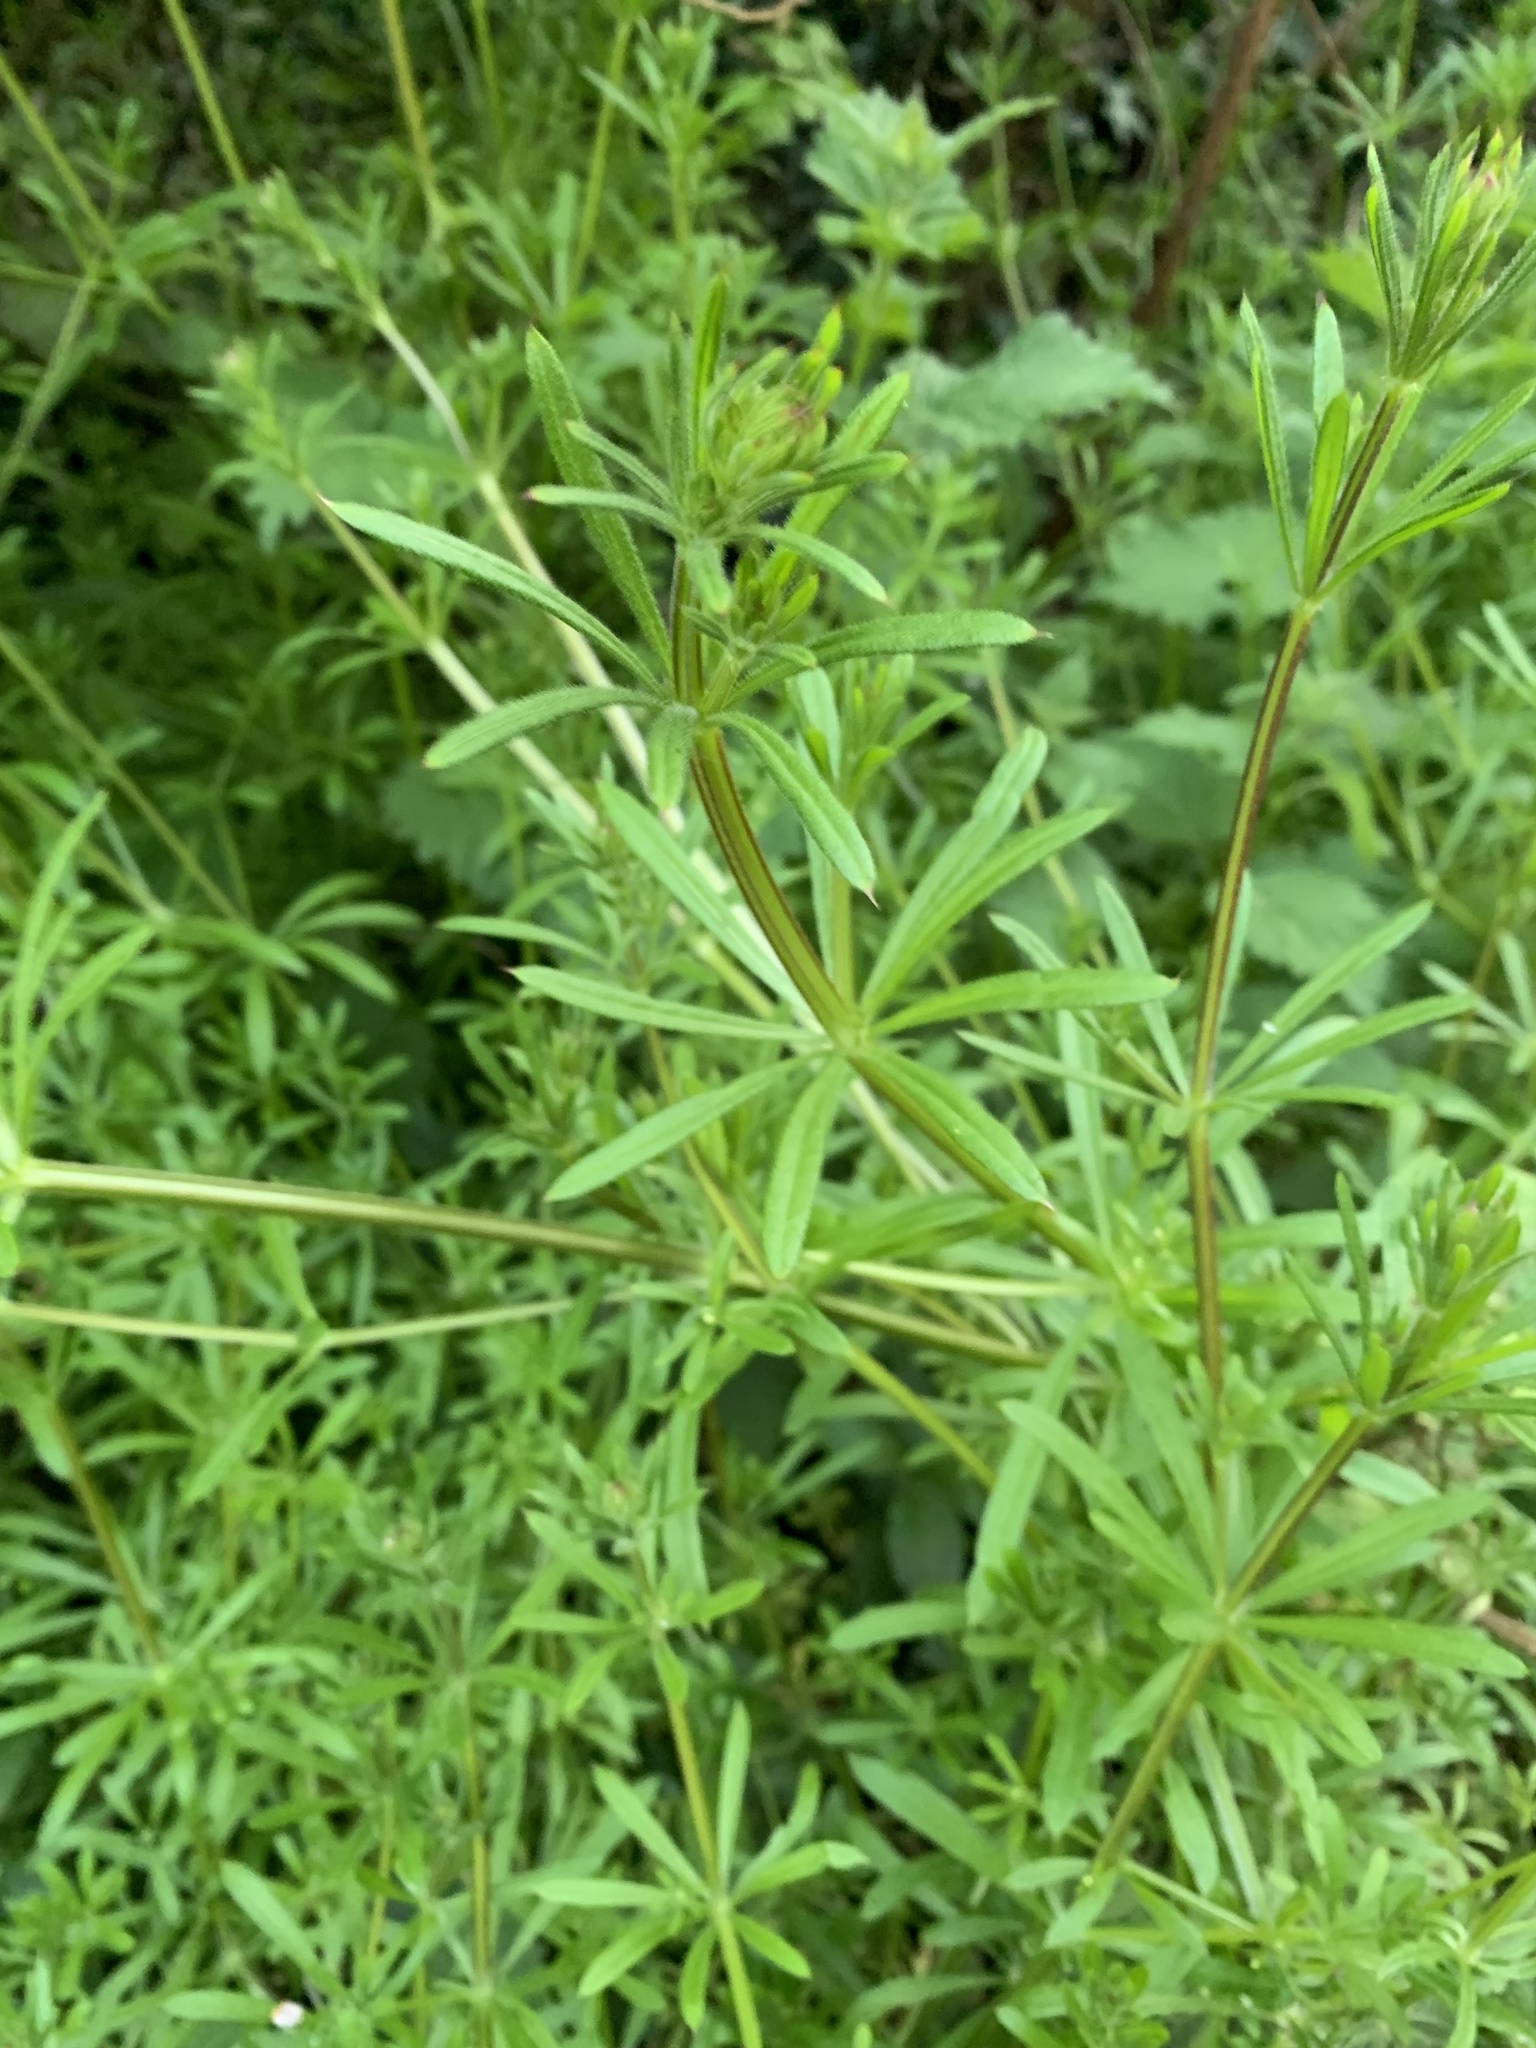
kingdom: Plantae
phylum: Tracheophyta
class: Magnoliopsida
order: Gentianales
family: Rubiaceae
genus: Galium
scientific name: Galium aparine
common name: Cleavers
